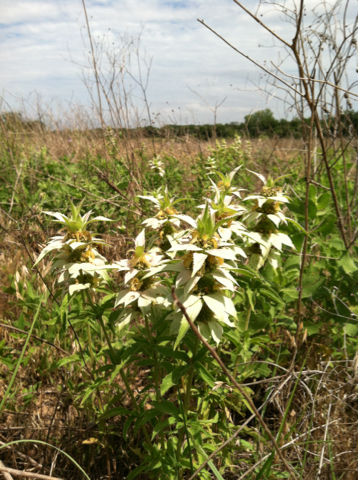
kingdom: Plantae
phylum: Tracheophyta
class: Magnoliopsida
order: Lamiales
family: Lamiaceae
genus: Monarda
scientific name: Monarda punctata
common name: Dotted monarda
